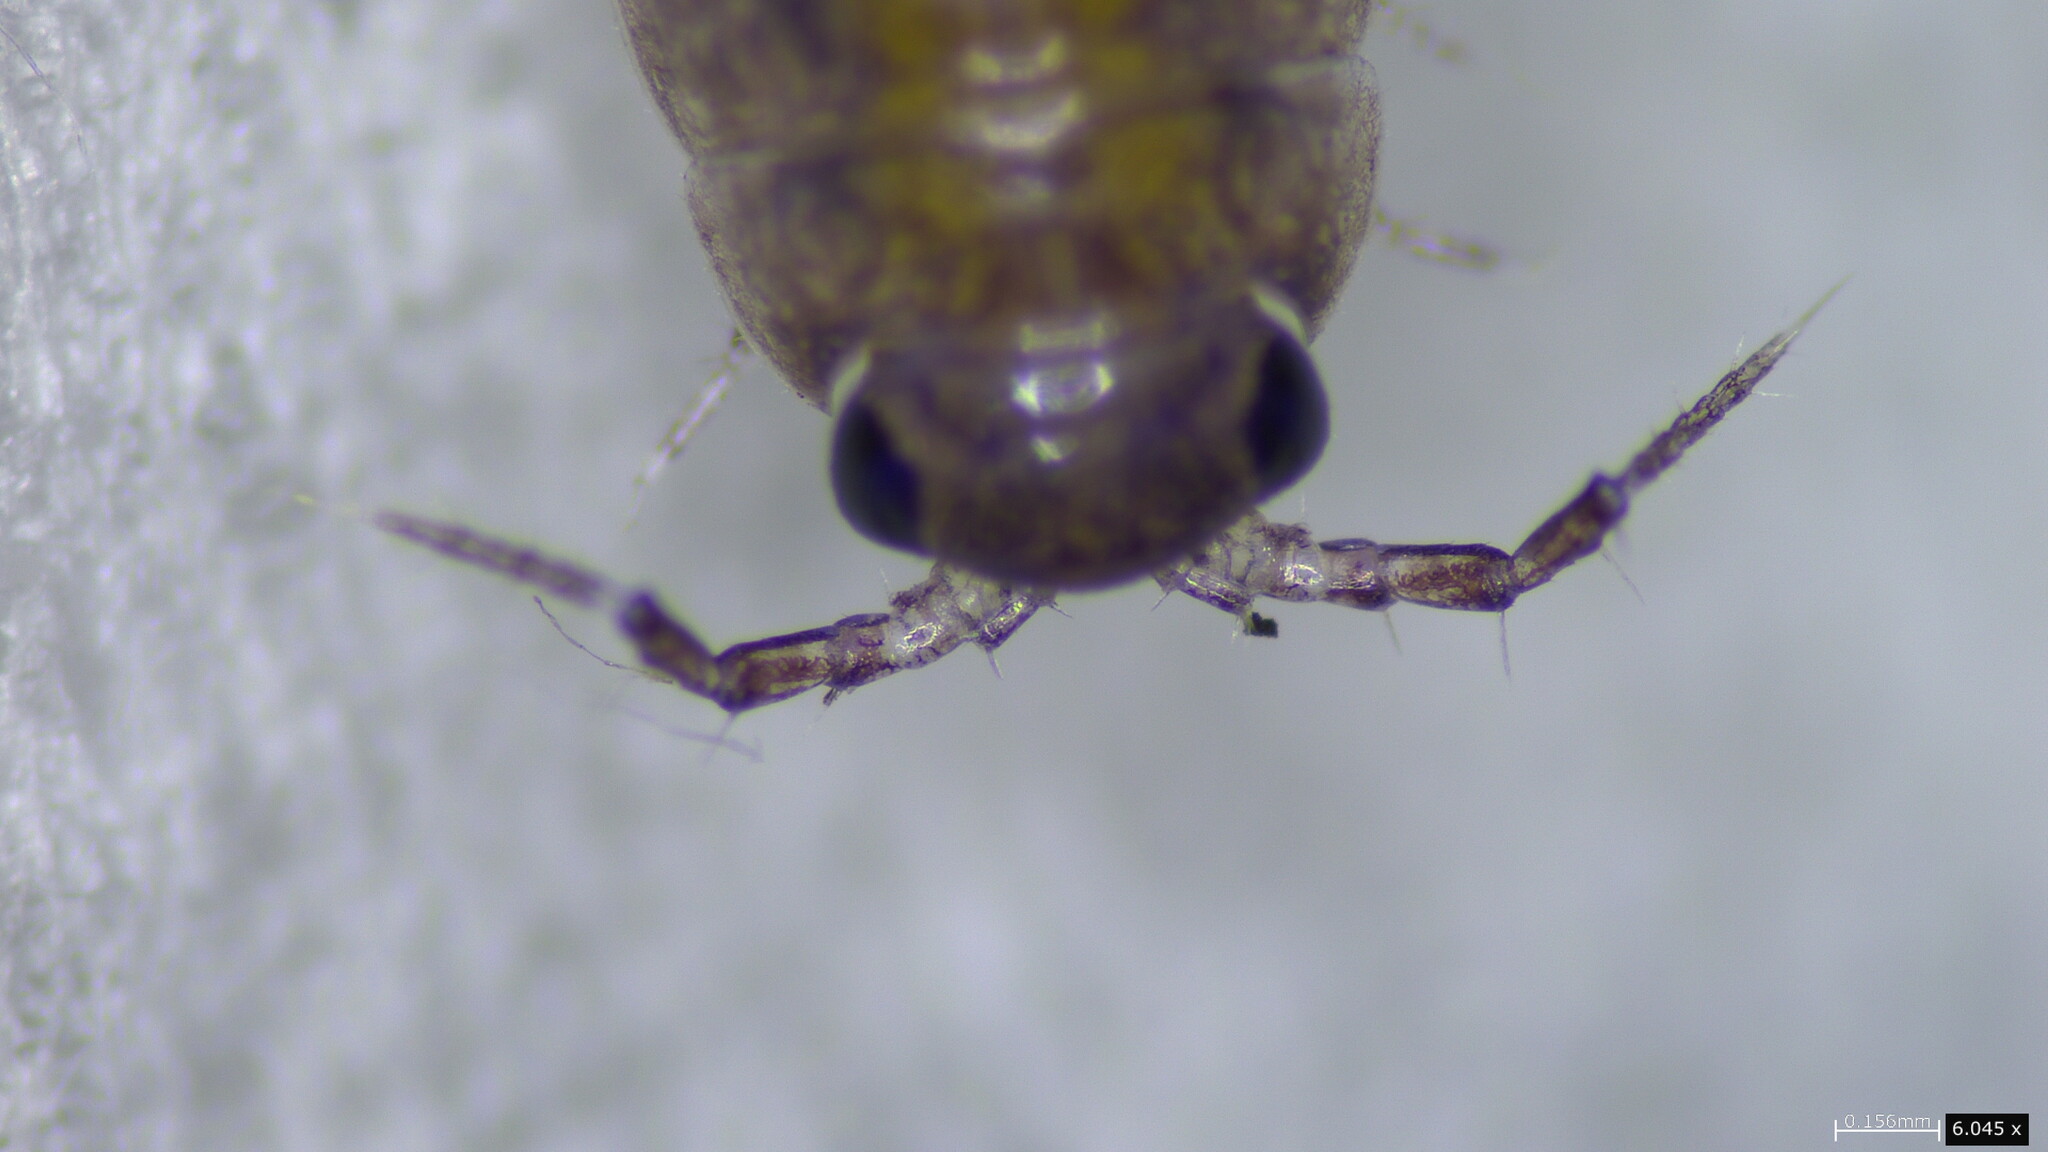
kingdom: Viruses
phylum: Nucleocytoviricota
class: Megaviricetes
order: Pimascovirales
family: Iridoviridae
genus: Iridovirus
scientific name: Iridovirus Invertebrate iridescent virus 31
